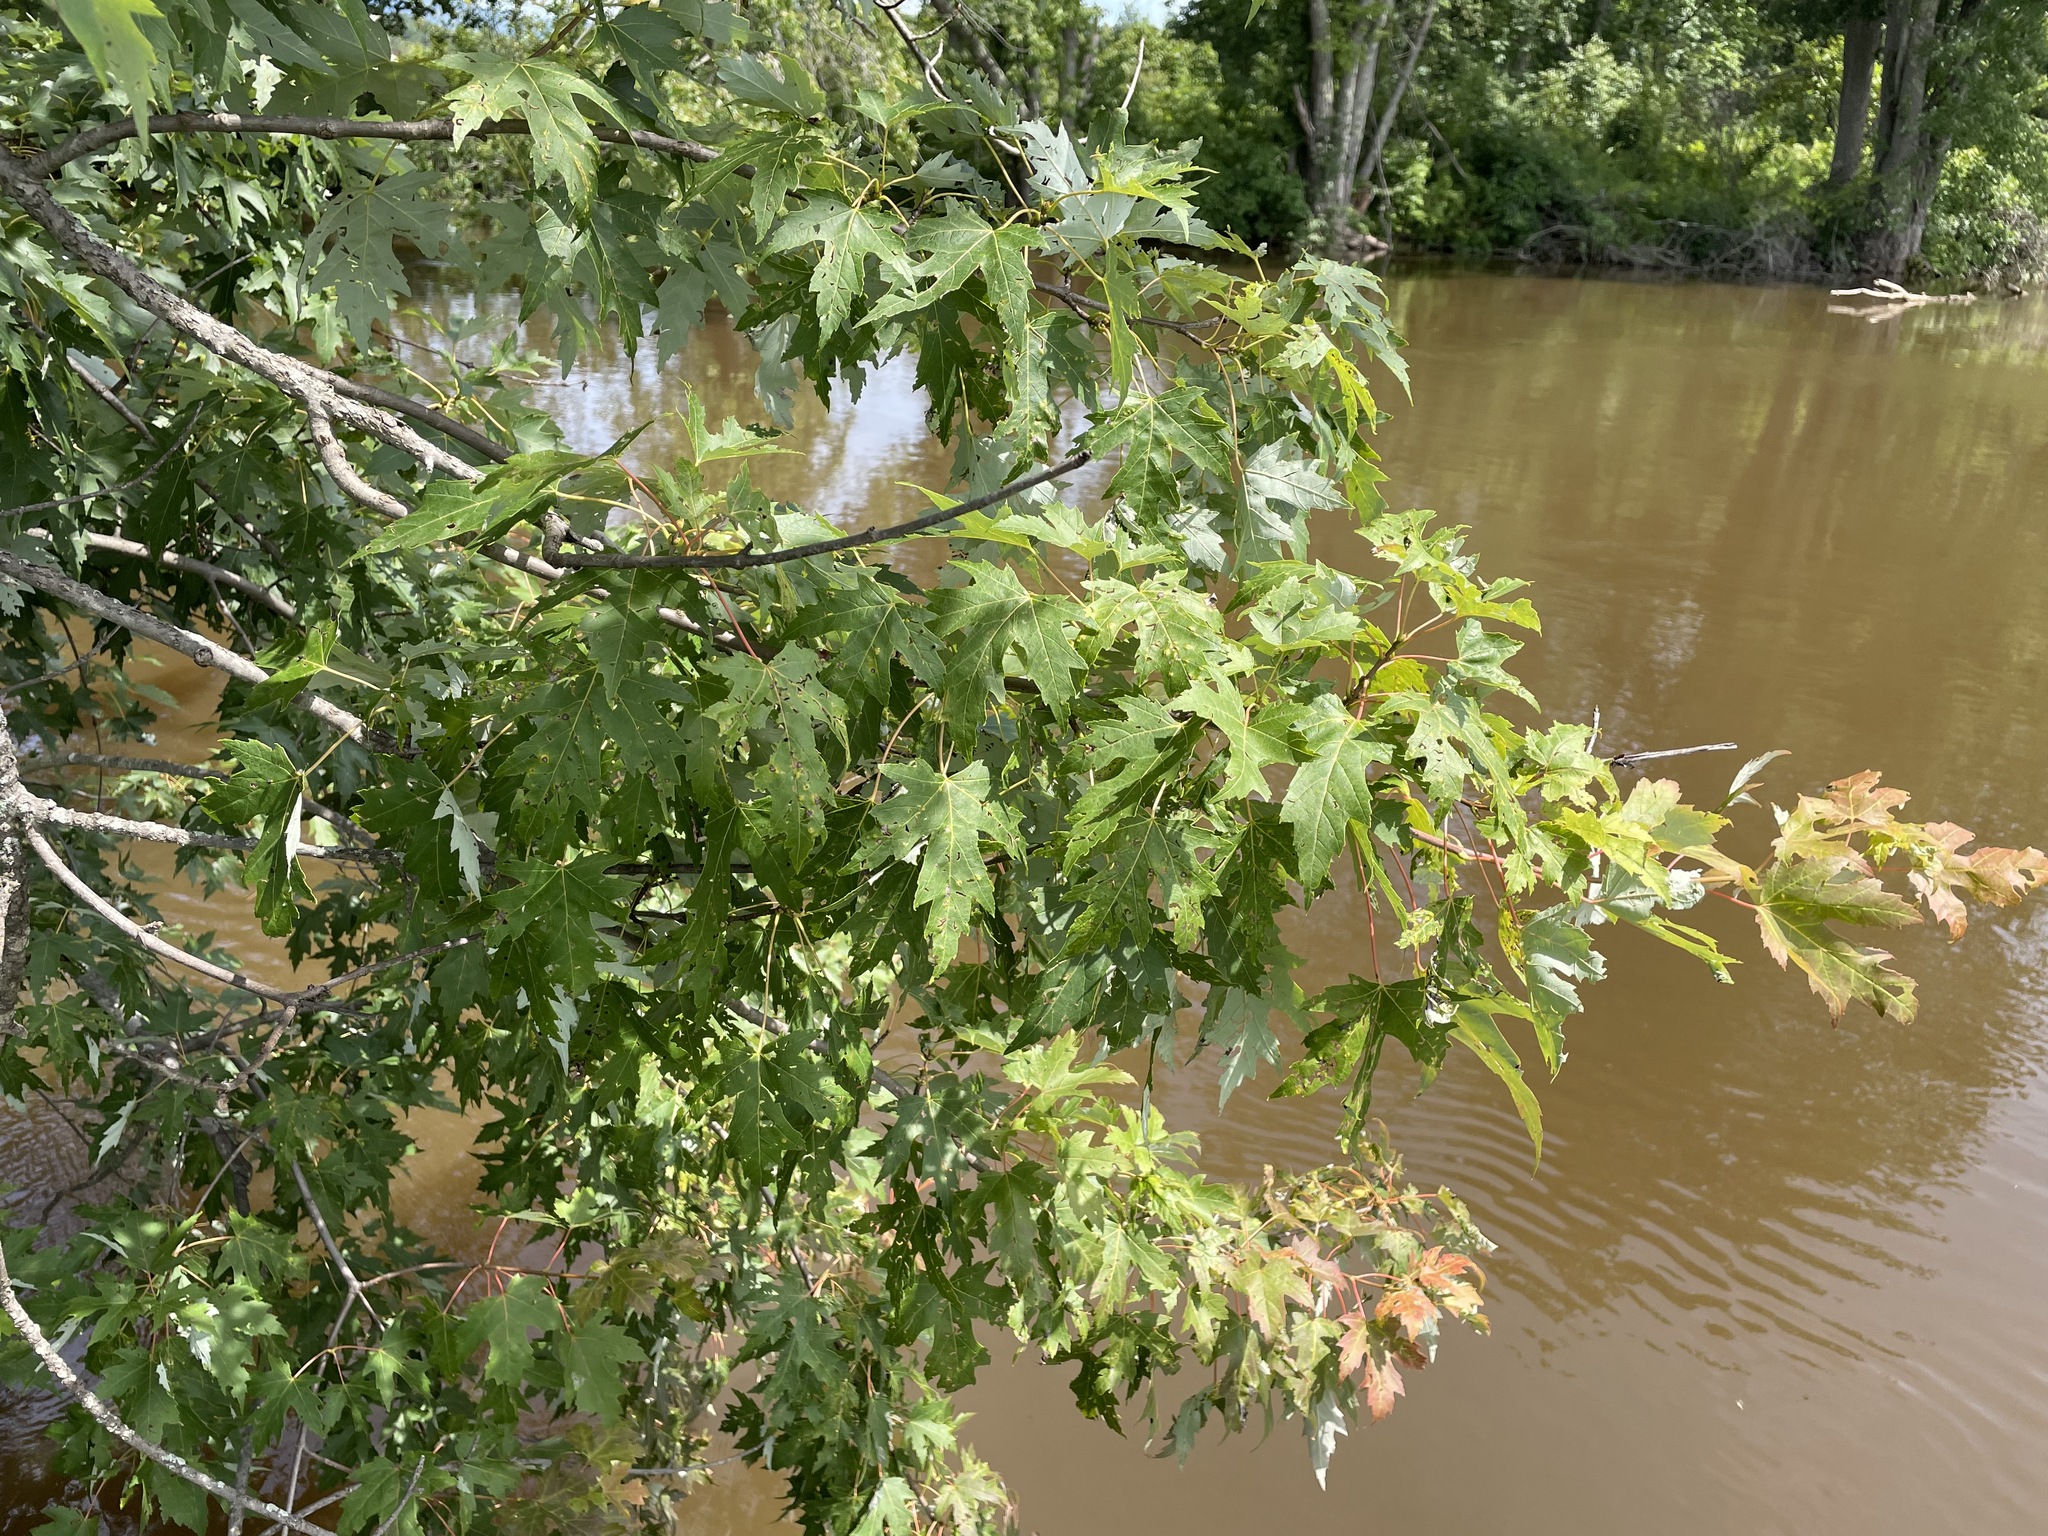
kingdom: Plantae
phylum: Tracheophyta
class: Magnoliopsida
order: Sapindales
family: Sapindaceae
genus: Acer
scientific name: Acer saccharinum
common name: Silver maple
